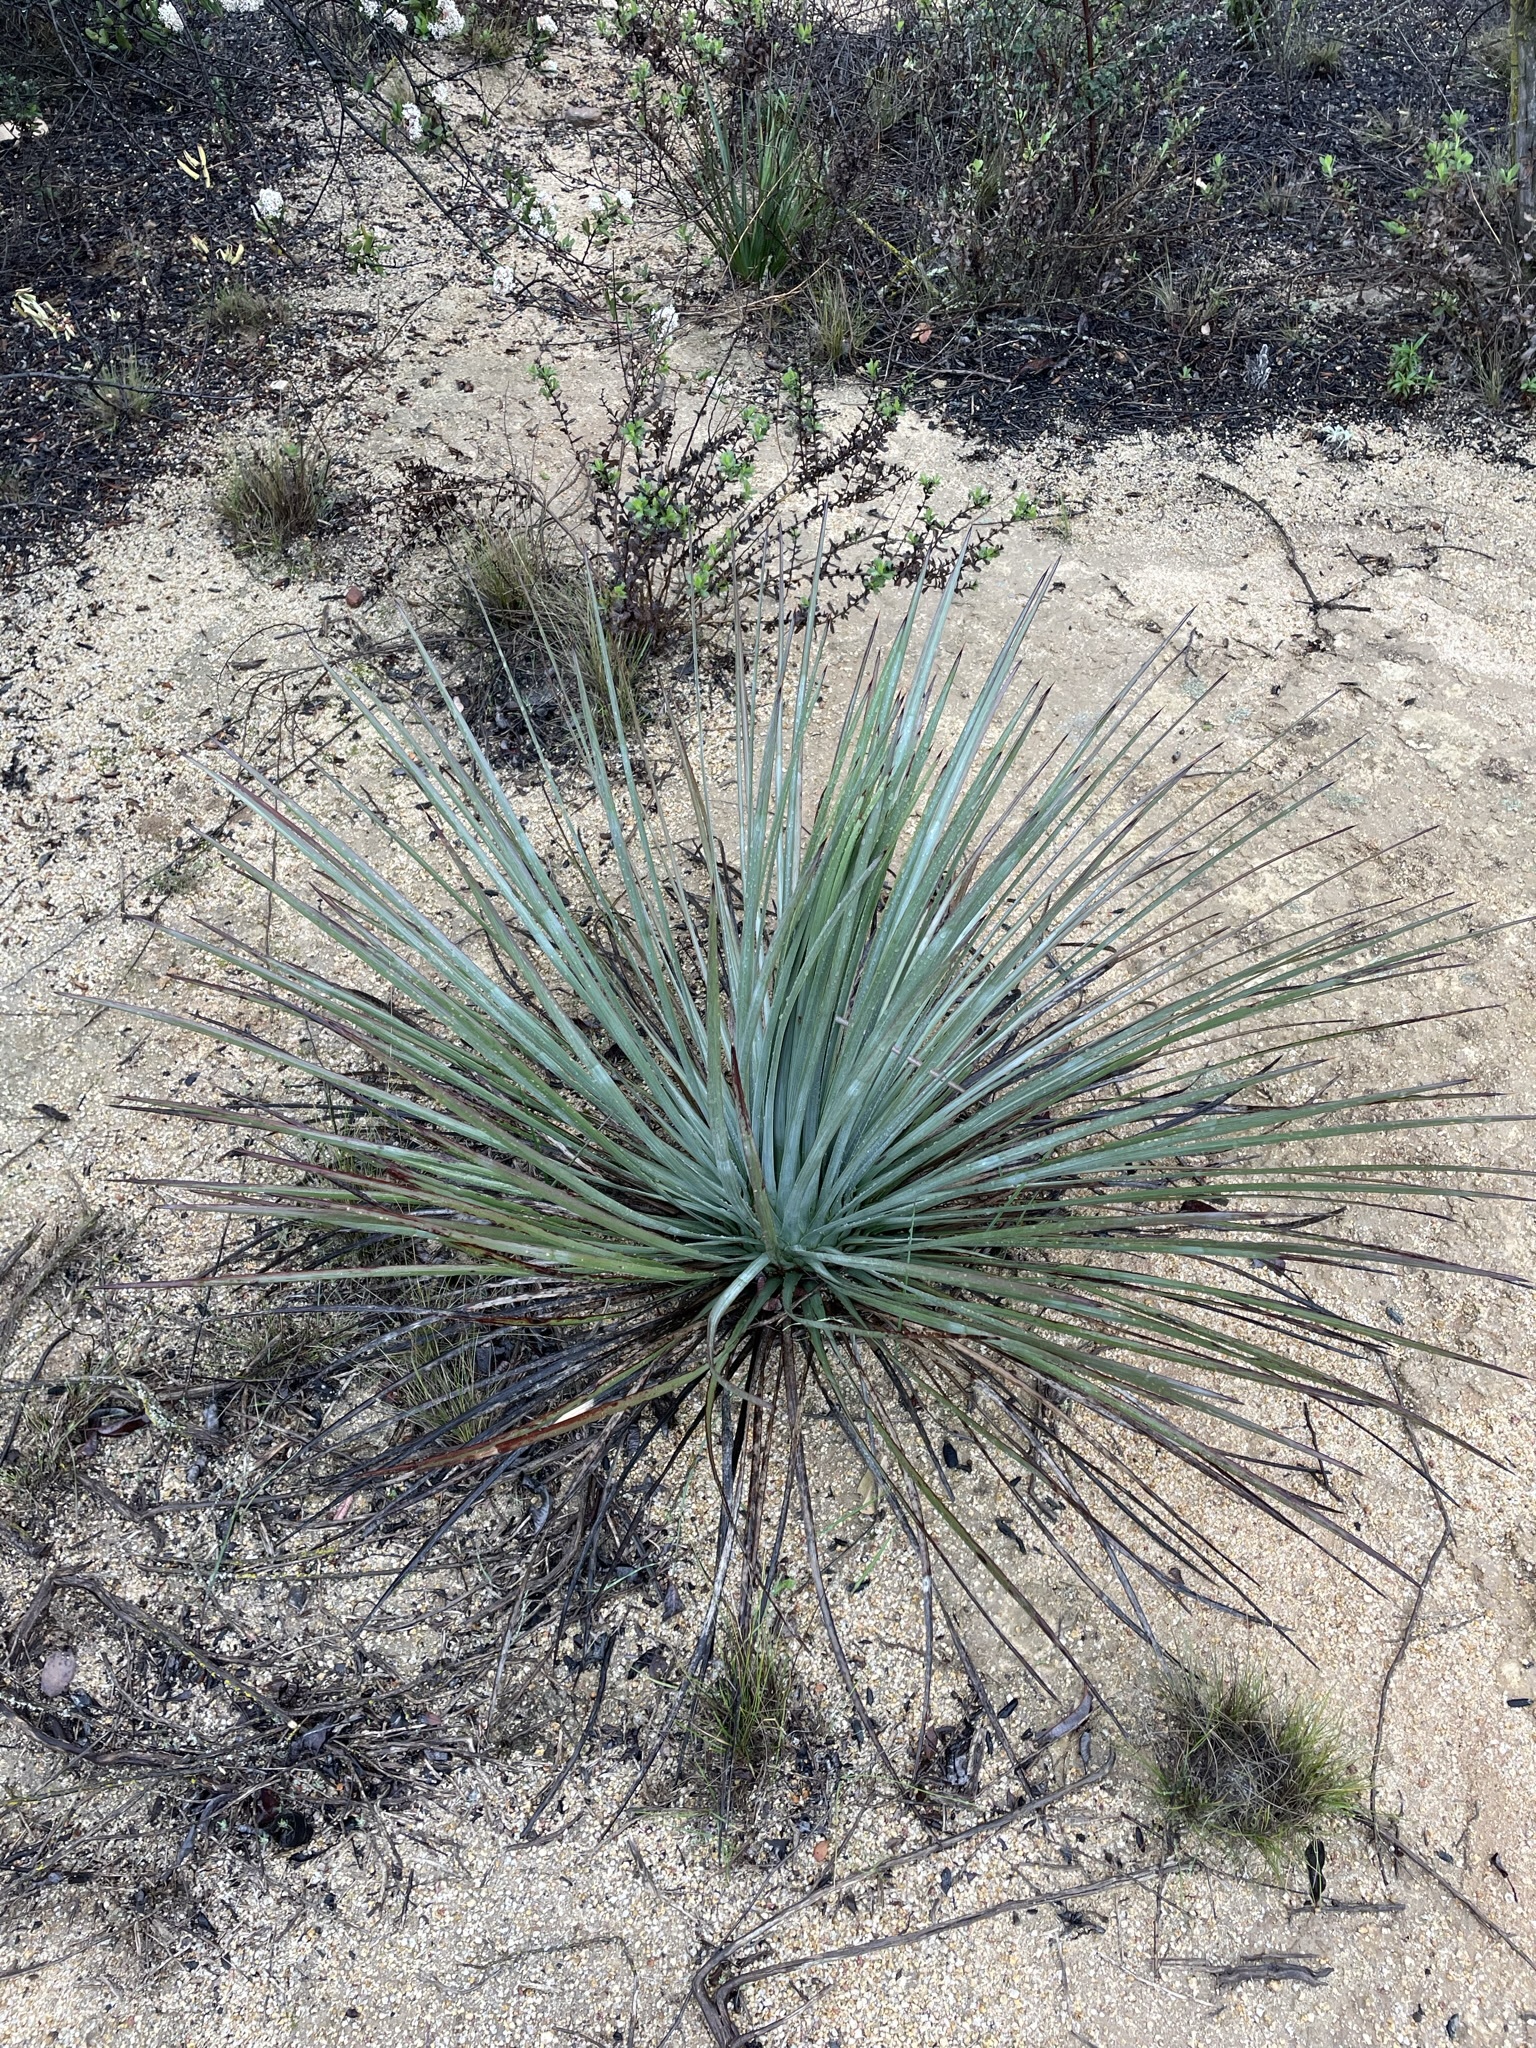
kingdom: Plantae
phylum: Tracheophyta
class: Liliopsida
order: Asparagales
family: Asparagaceae
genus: Hesperoyucca
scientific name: Hesperoyucca whipplei
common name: Our lord's-candle
